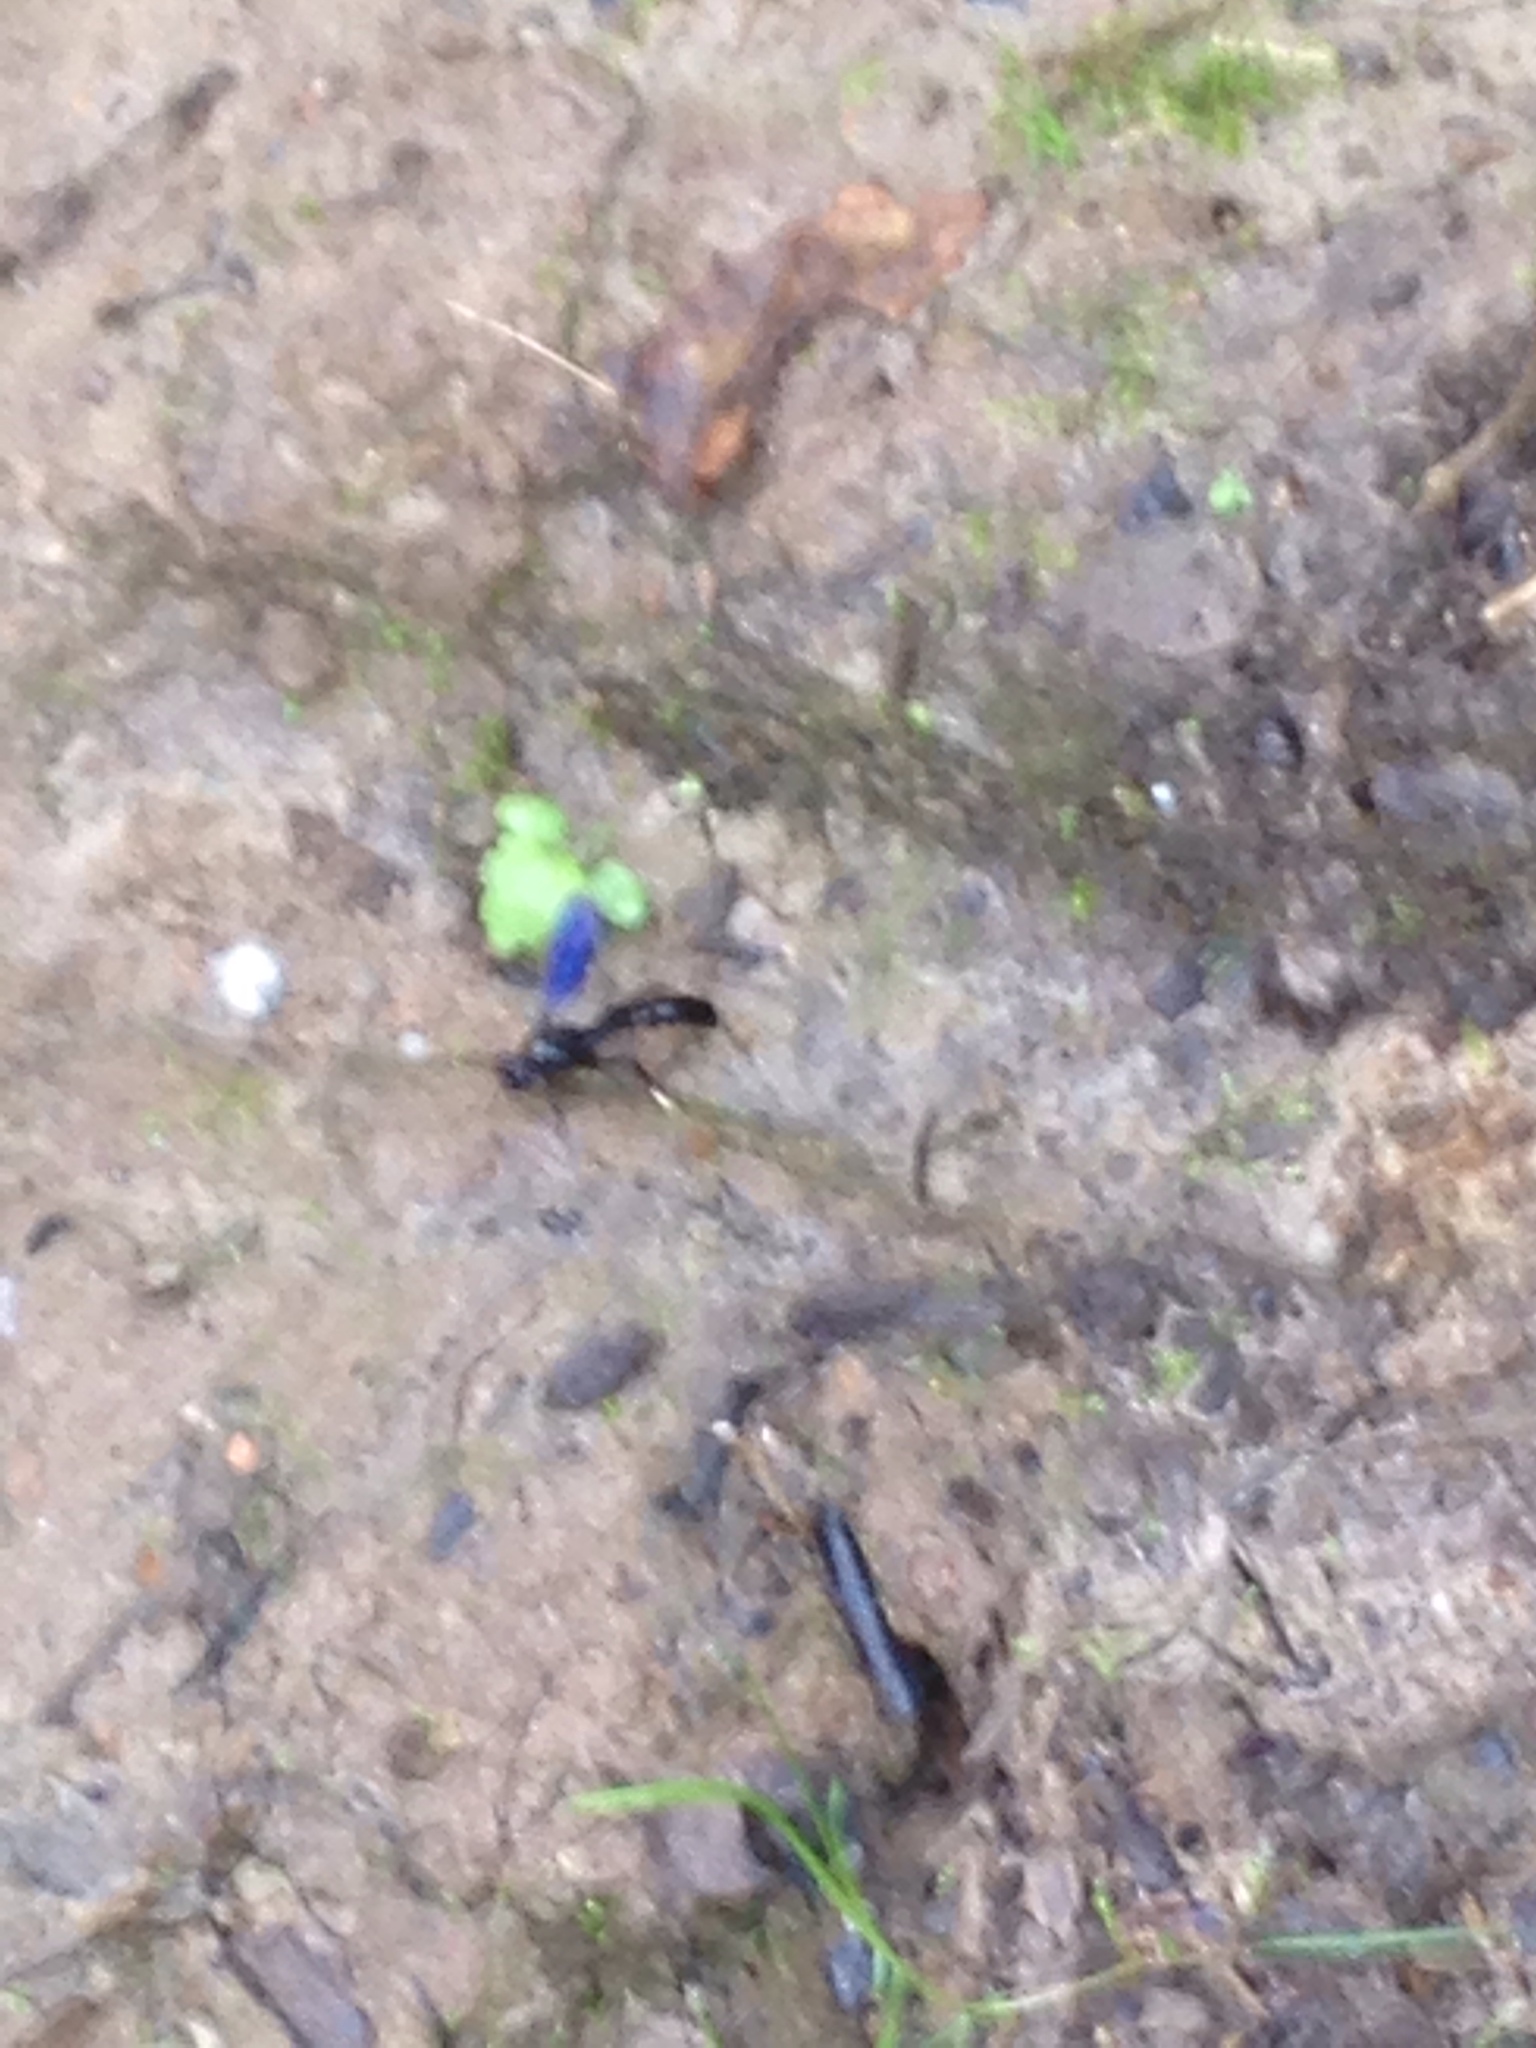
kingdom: Animalia
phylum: Arthropoda
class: Insecta
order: Hymenoptera
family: Crabronidae
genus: Trypoxylon
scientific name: Trypoxylon politum
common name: Organ-pipe mud-dauber wasp
